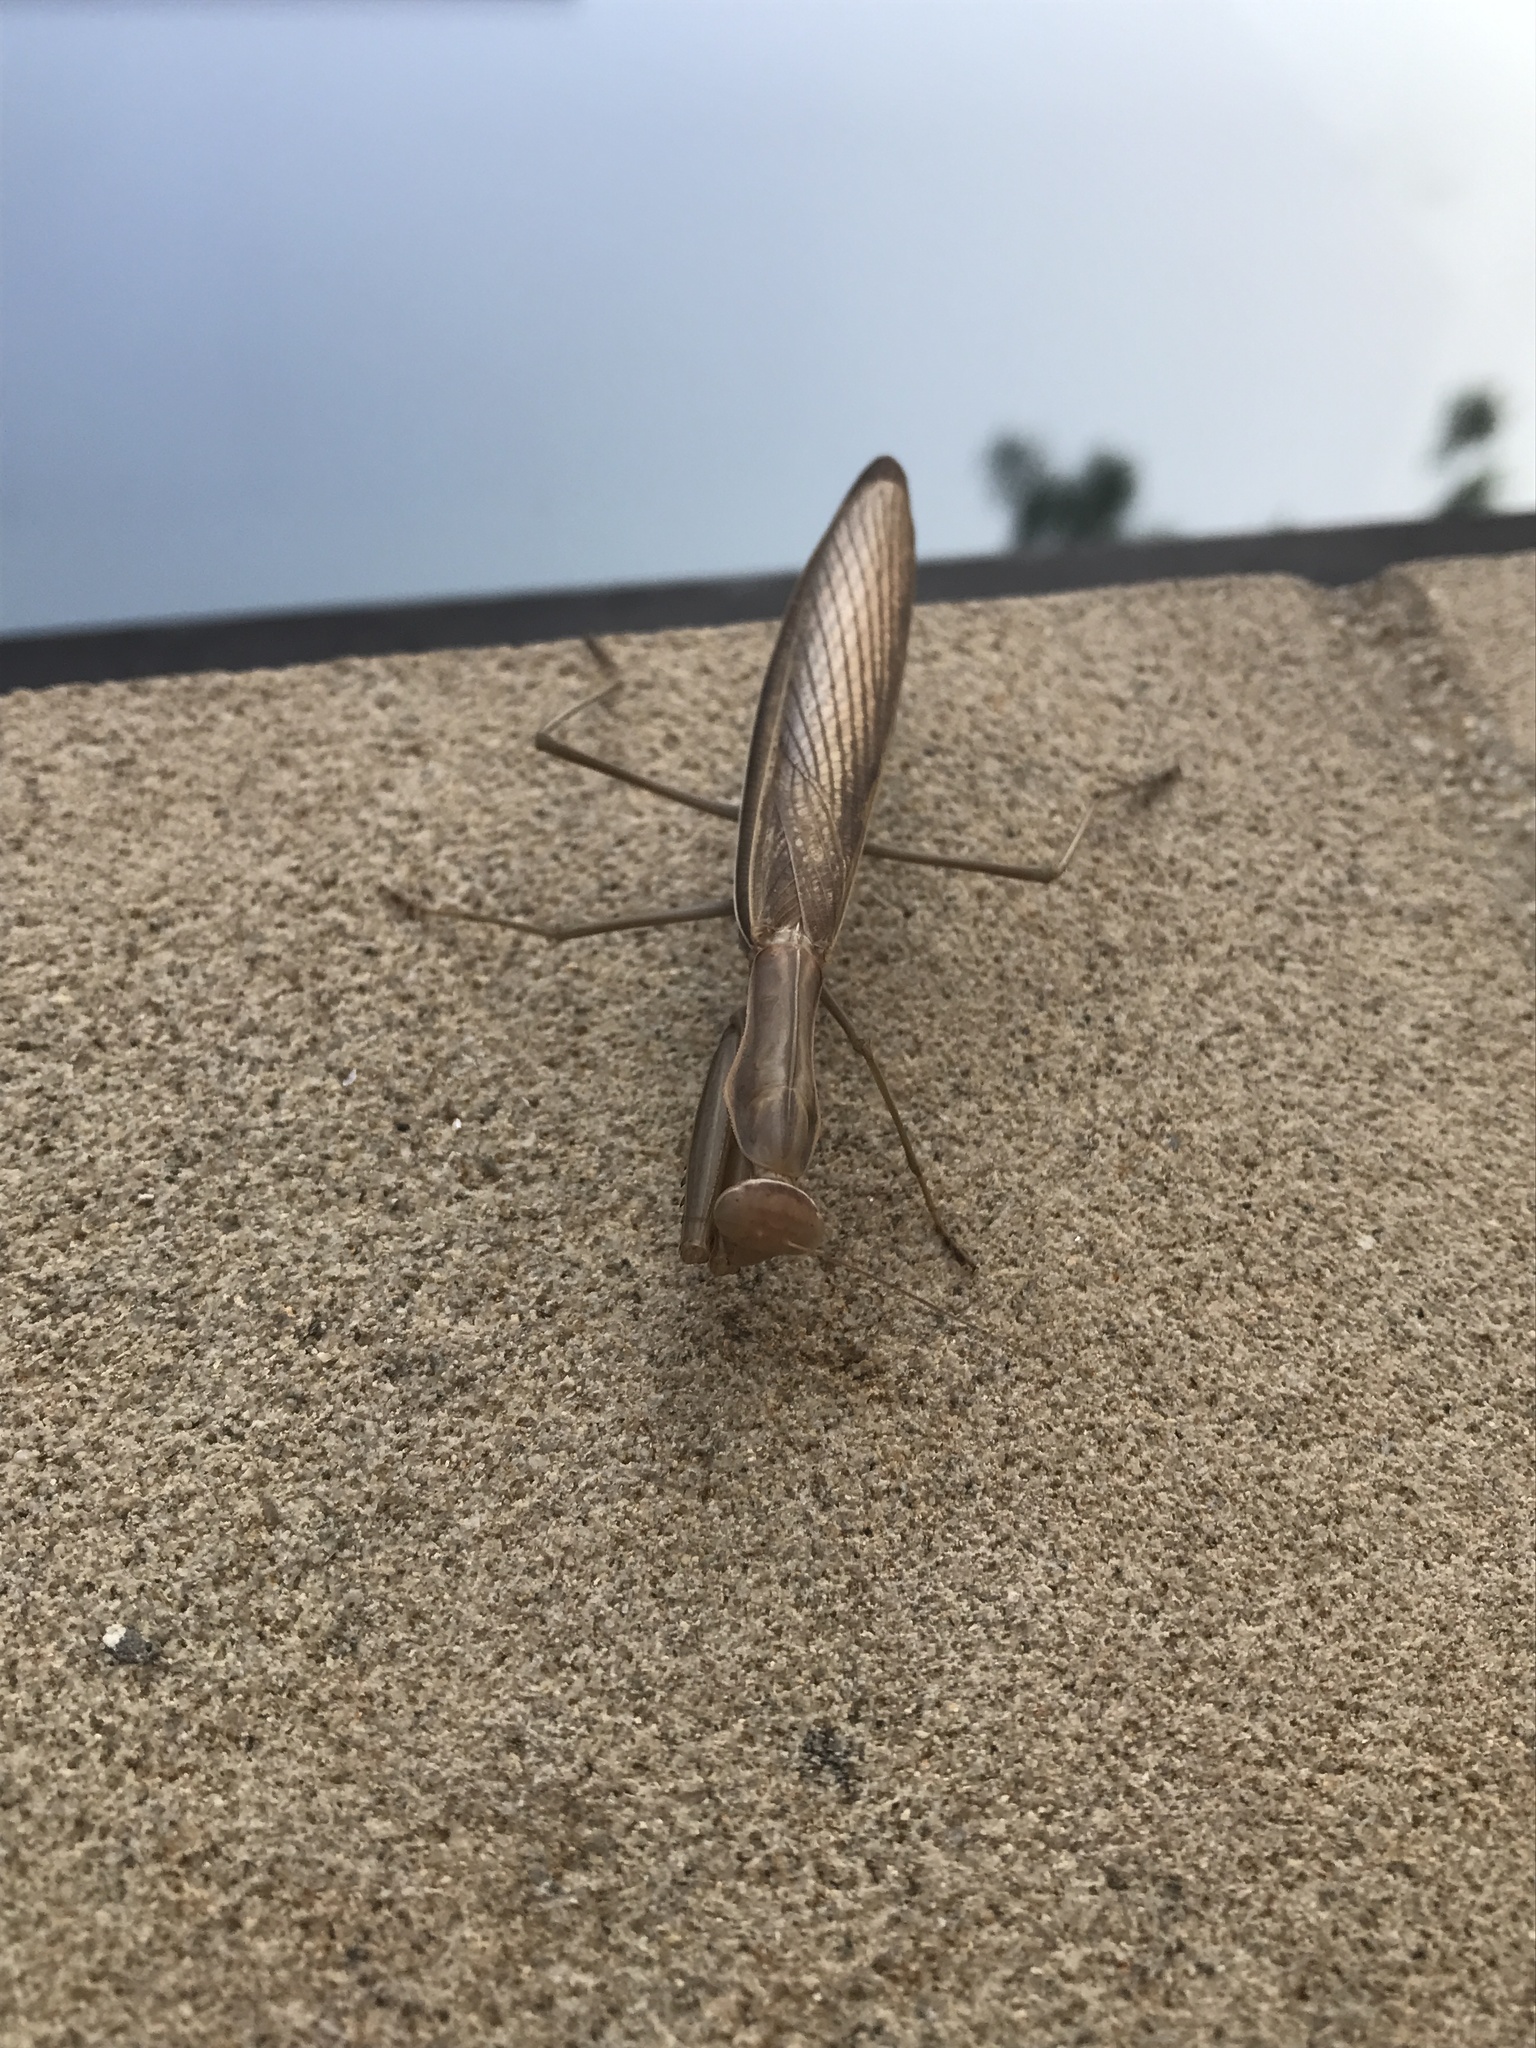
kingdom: Animalia
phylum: Arthropoda
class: Insecta
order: Mantodea
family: Mantidae
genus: Mantis
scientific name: Mantis religiosa
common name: Praying mantis
